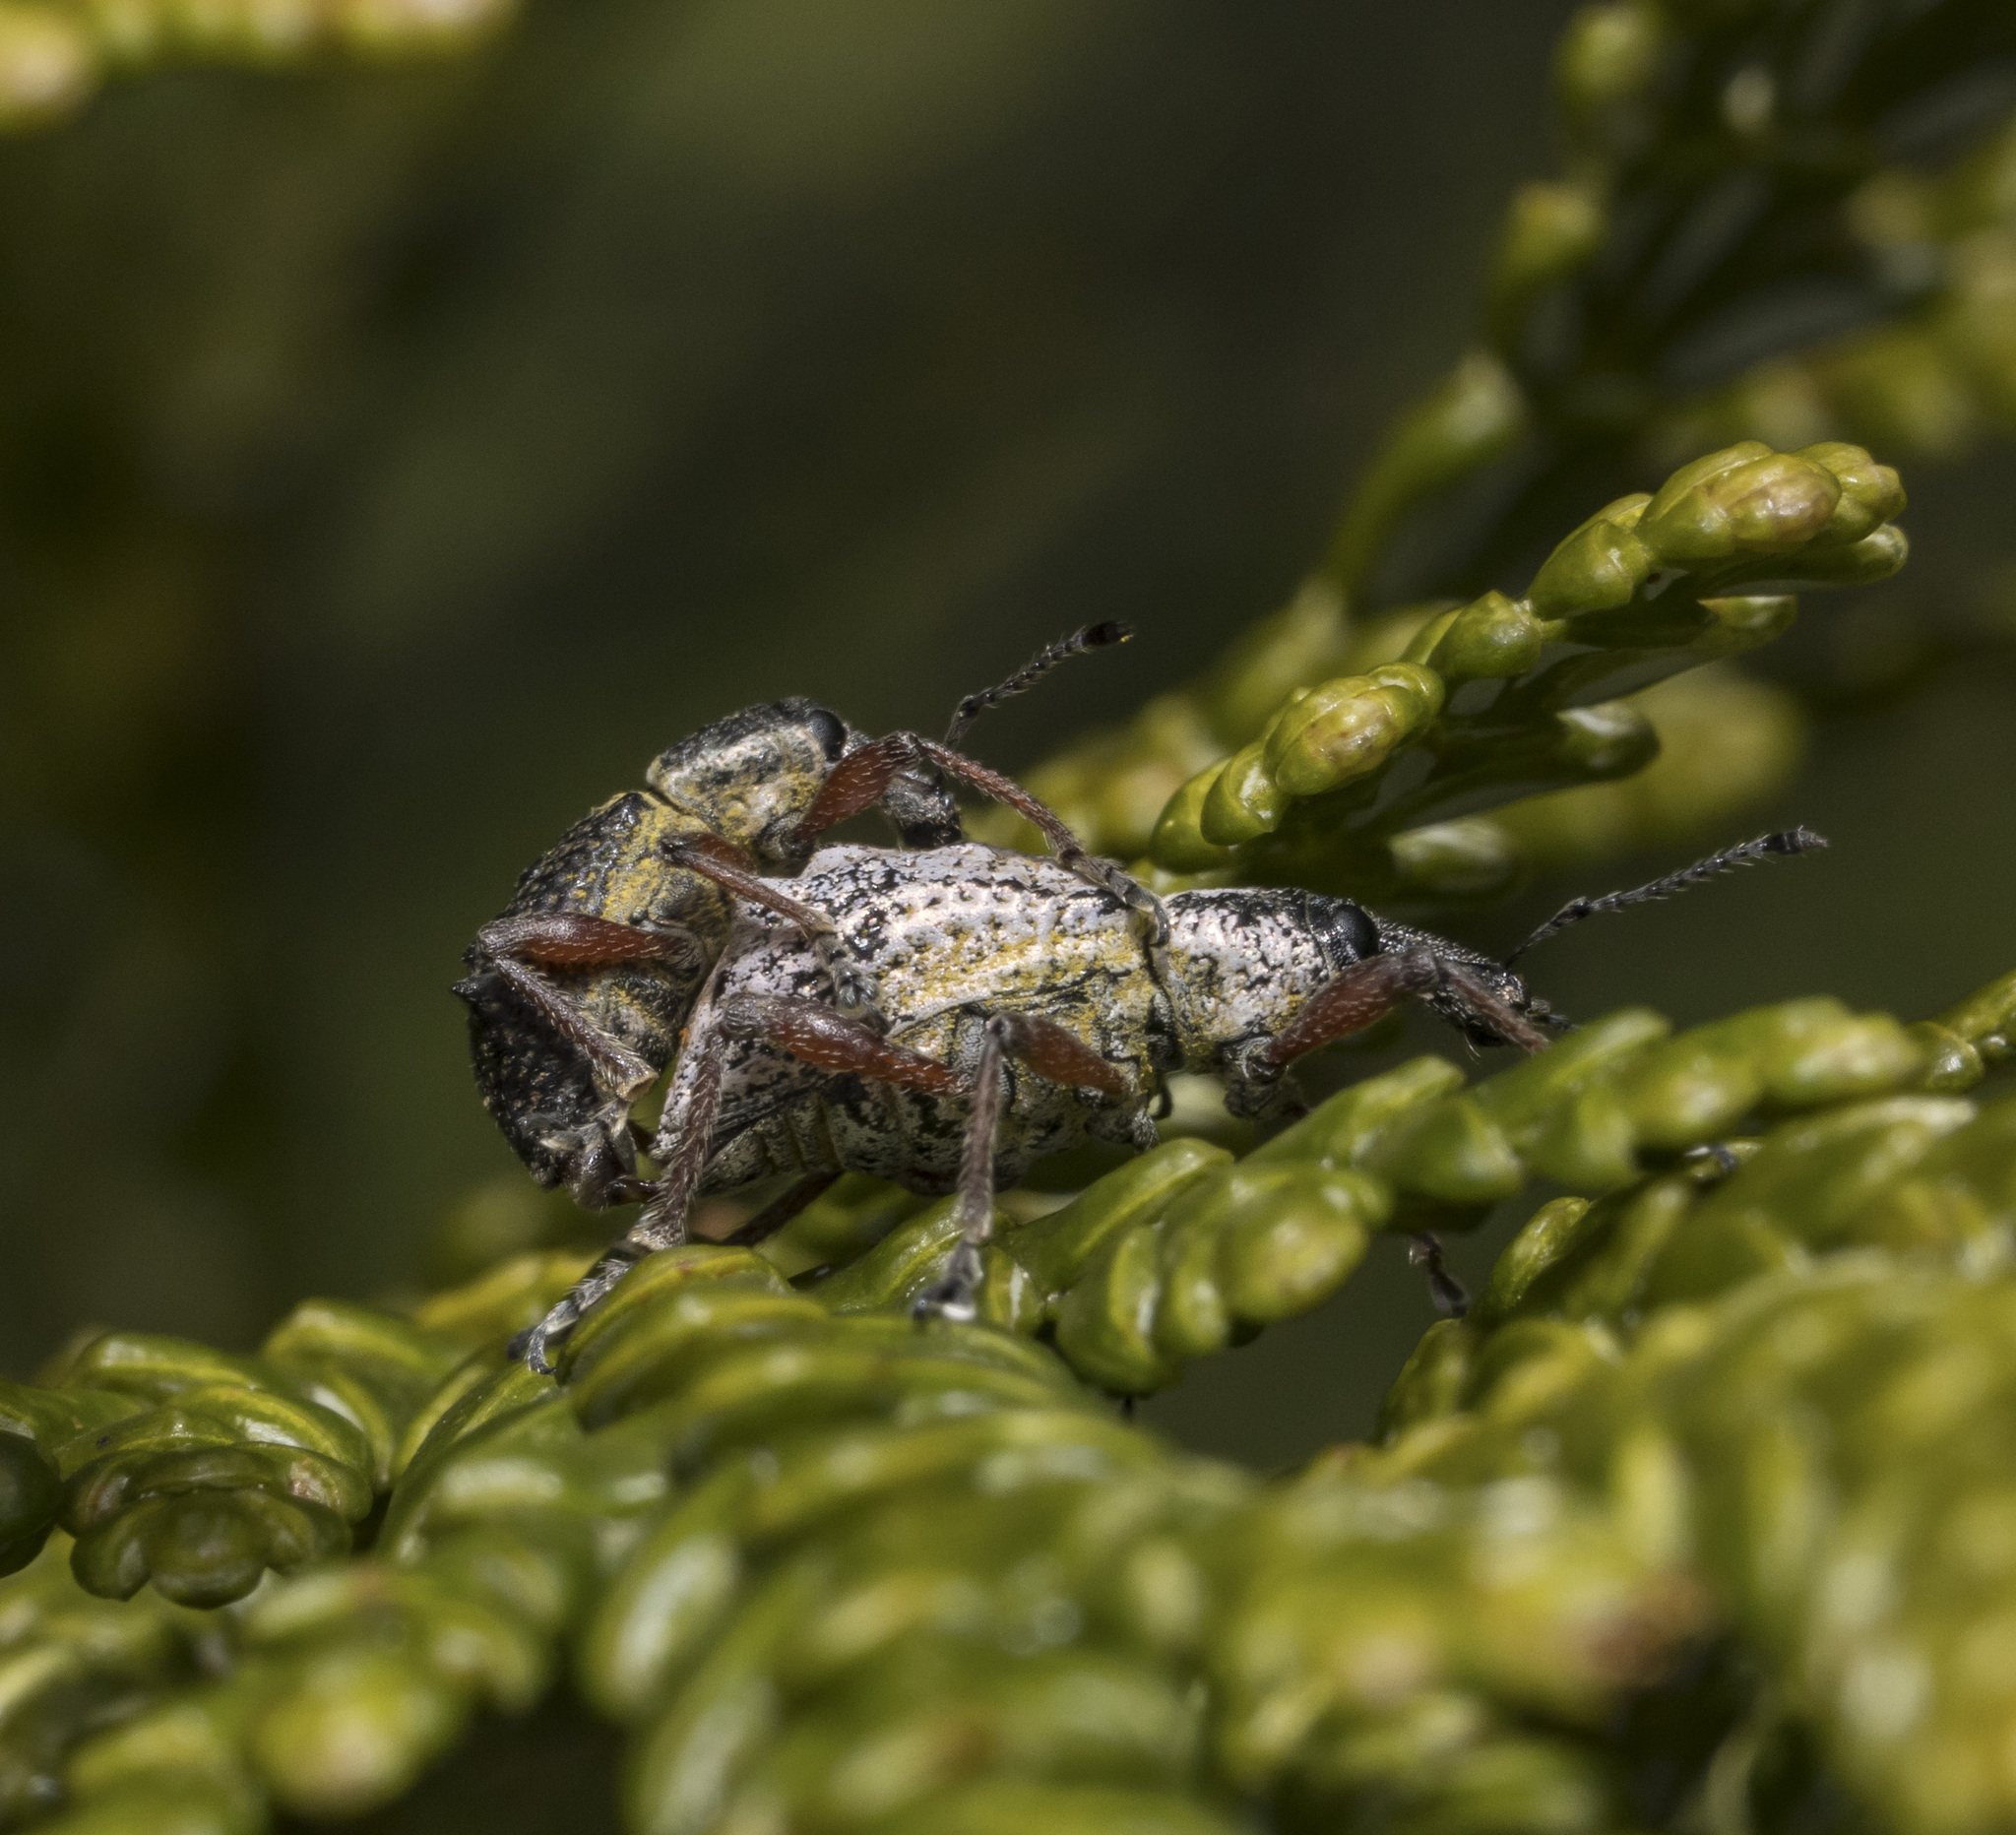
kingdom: Animalia
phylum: Arthropoda
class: Insecta
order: Coleoptera
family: Curculionidae
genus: Hybreoleptops
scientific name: Hybreoleptops tuberculifer
